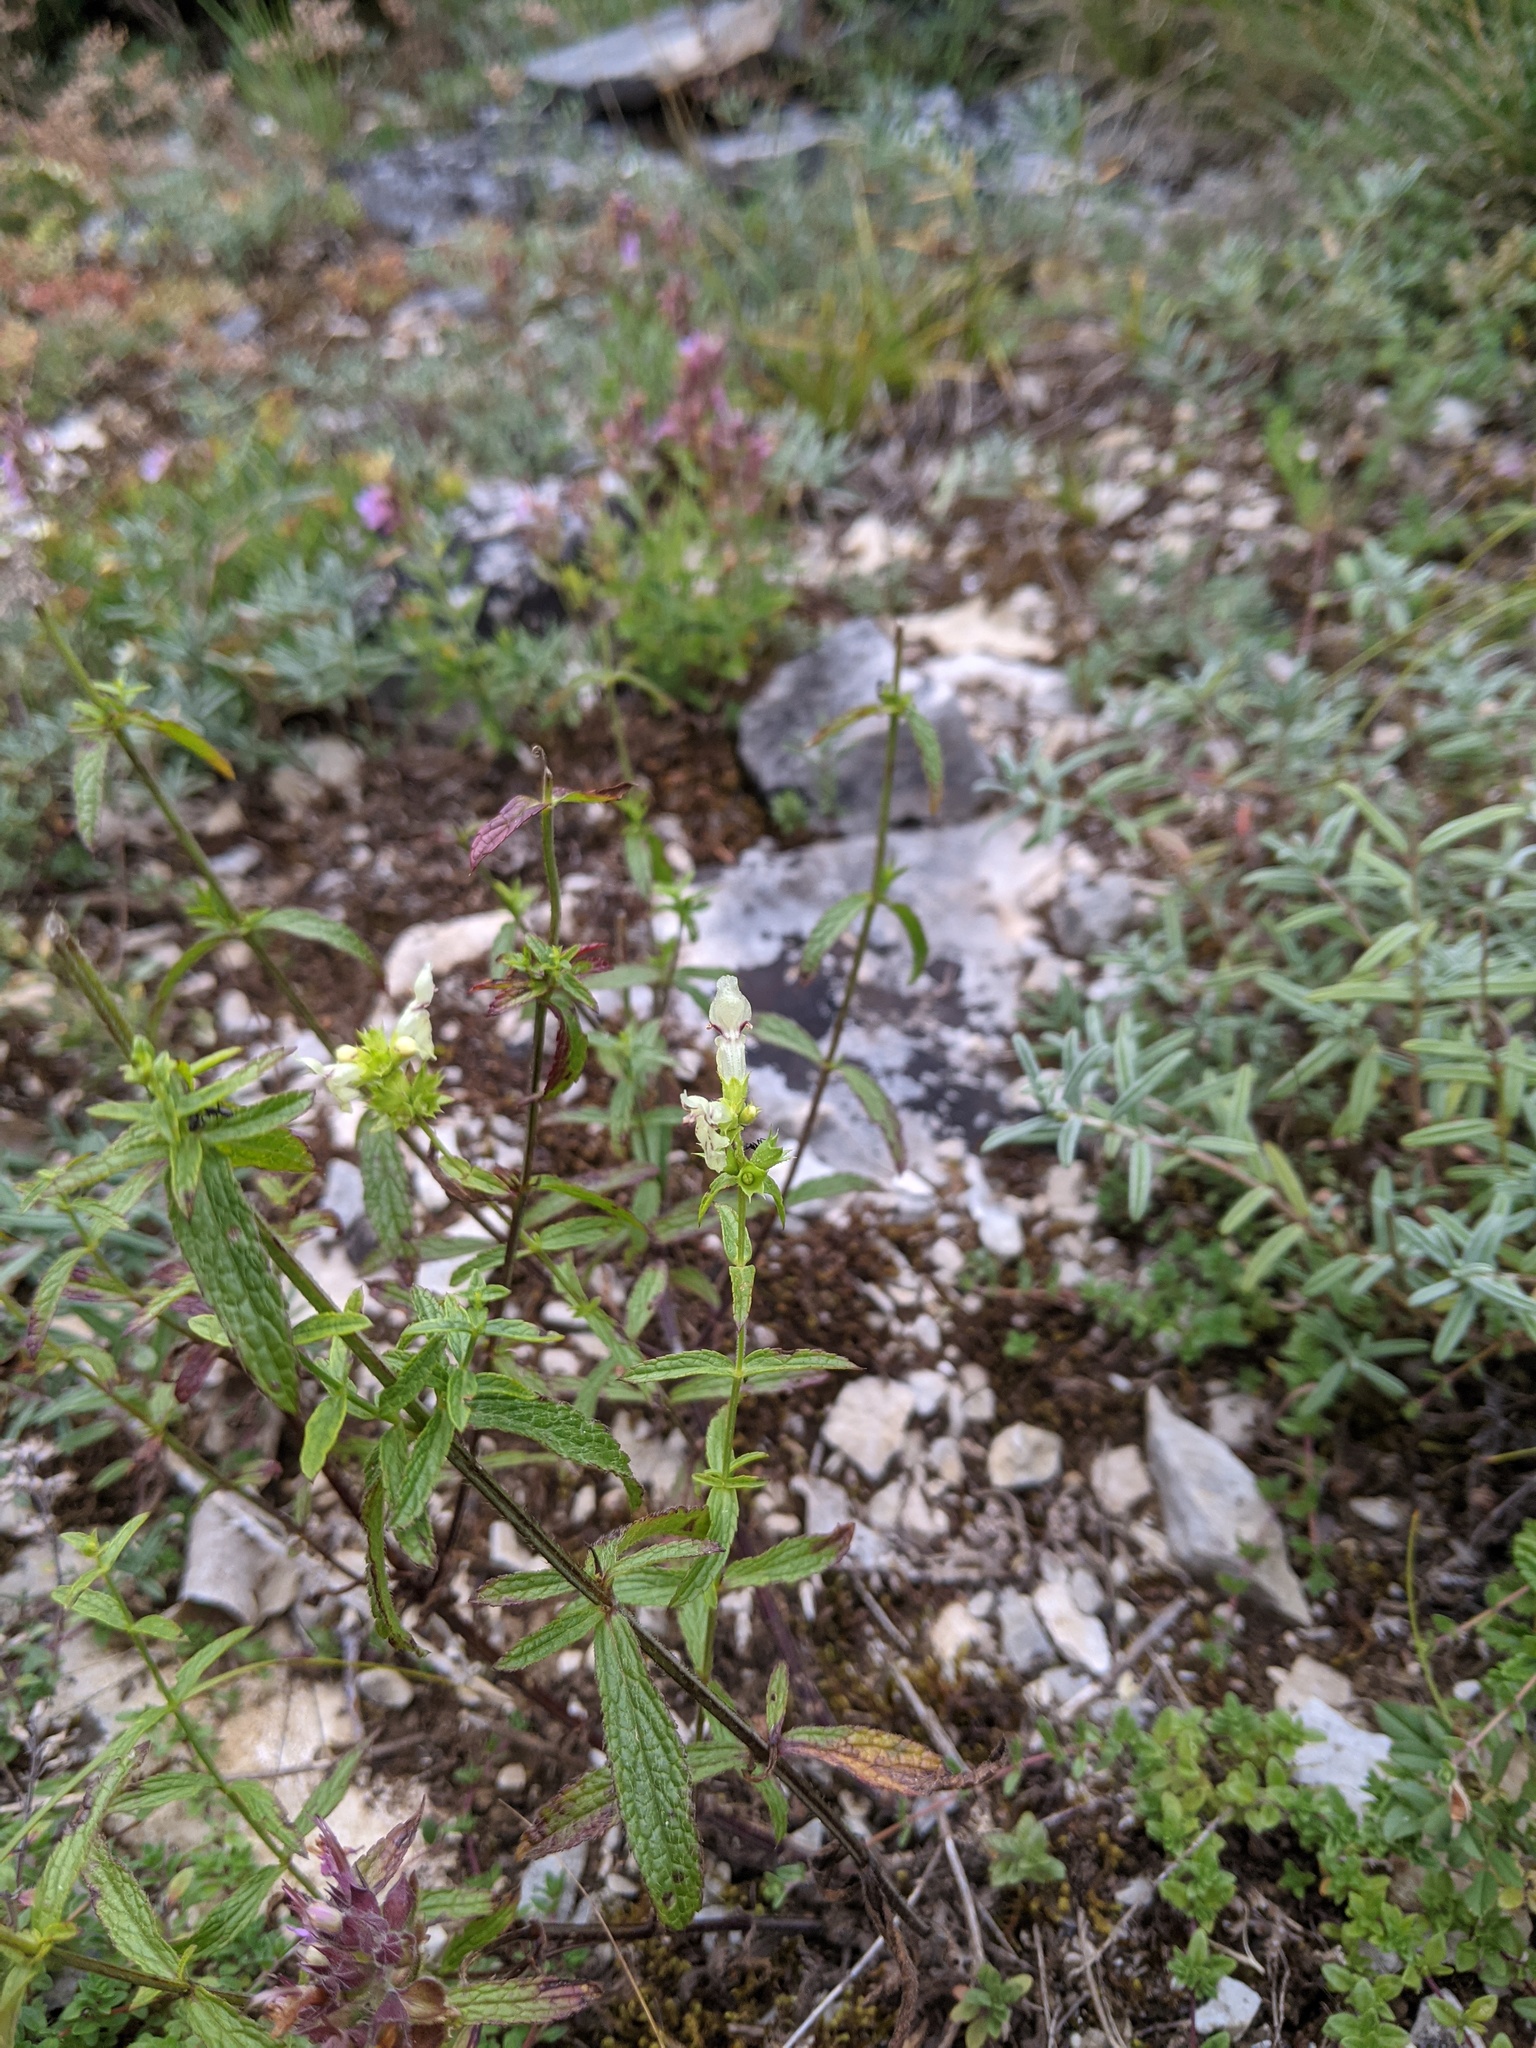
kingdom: Plantae
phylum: Tracheophyta
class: Magnoliopsida
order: Lamiales
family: Lamiaceae
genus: Stachys
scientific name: Stachys recta
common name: Perennial yellow-woundwort
